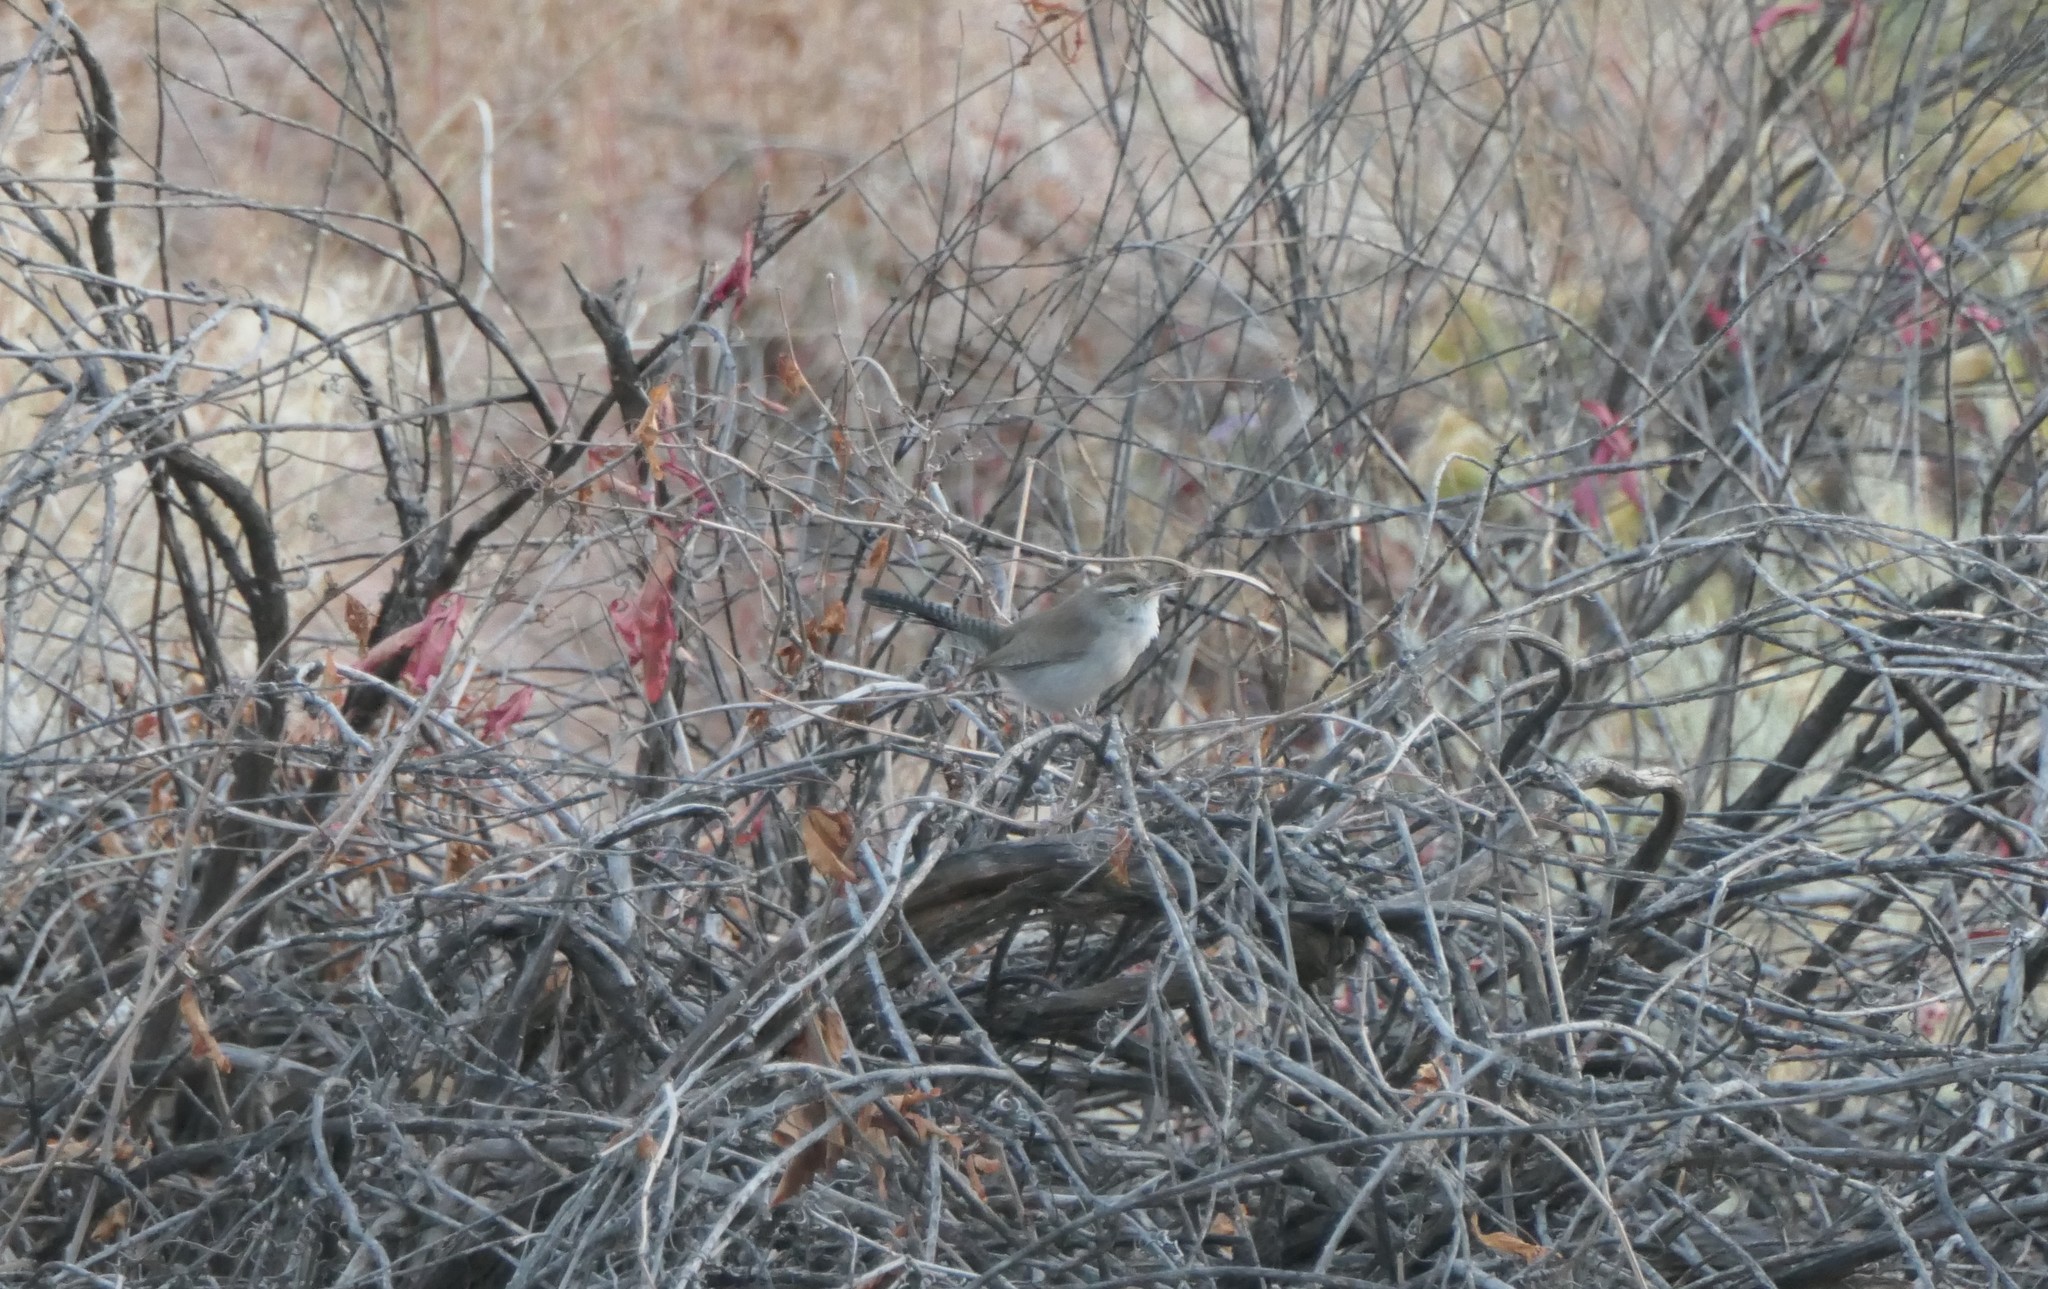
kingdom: Animalia
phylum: Chordata
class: Aves
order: Passeriformes
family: Troglodytidae
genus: Thryomanes
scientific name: Thryomanes bewickii
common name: Bewick's wren
